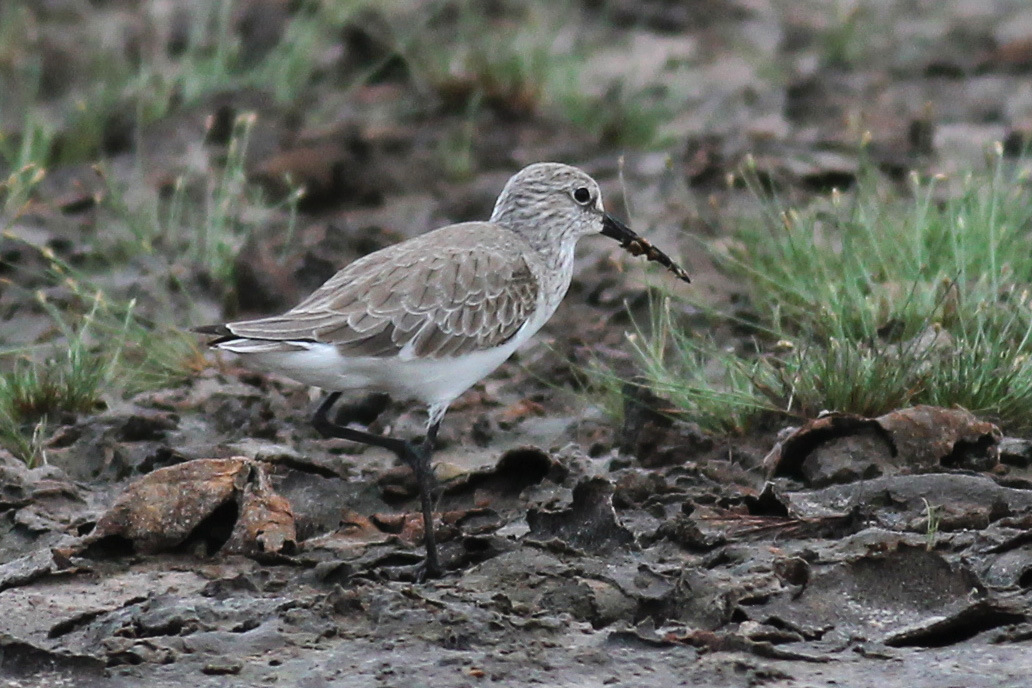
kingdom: Animalia
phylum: Chordata
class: Aves
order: Charadriiformes
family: Scolopacidae
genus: Calidris
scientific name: Calidris ferruginea
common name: Curlew sandpiper
